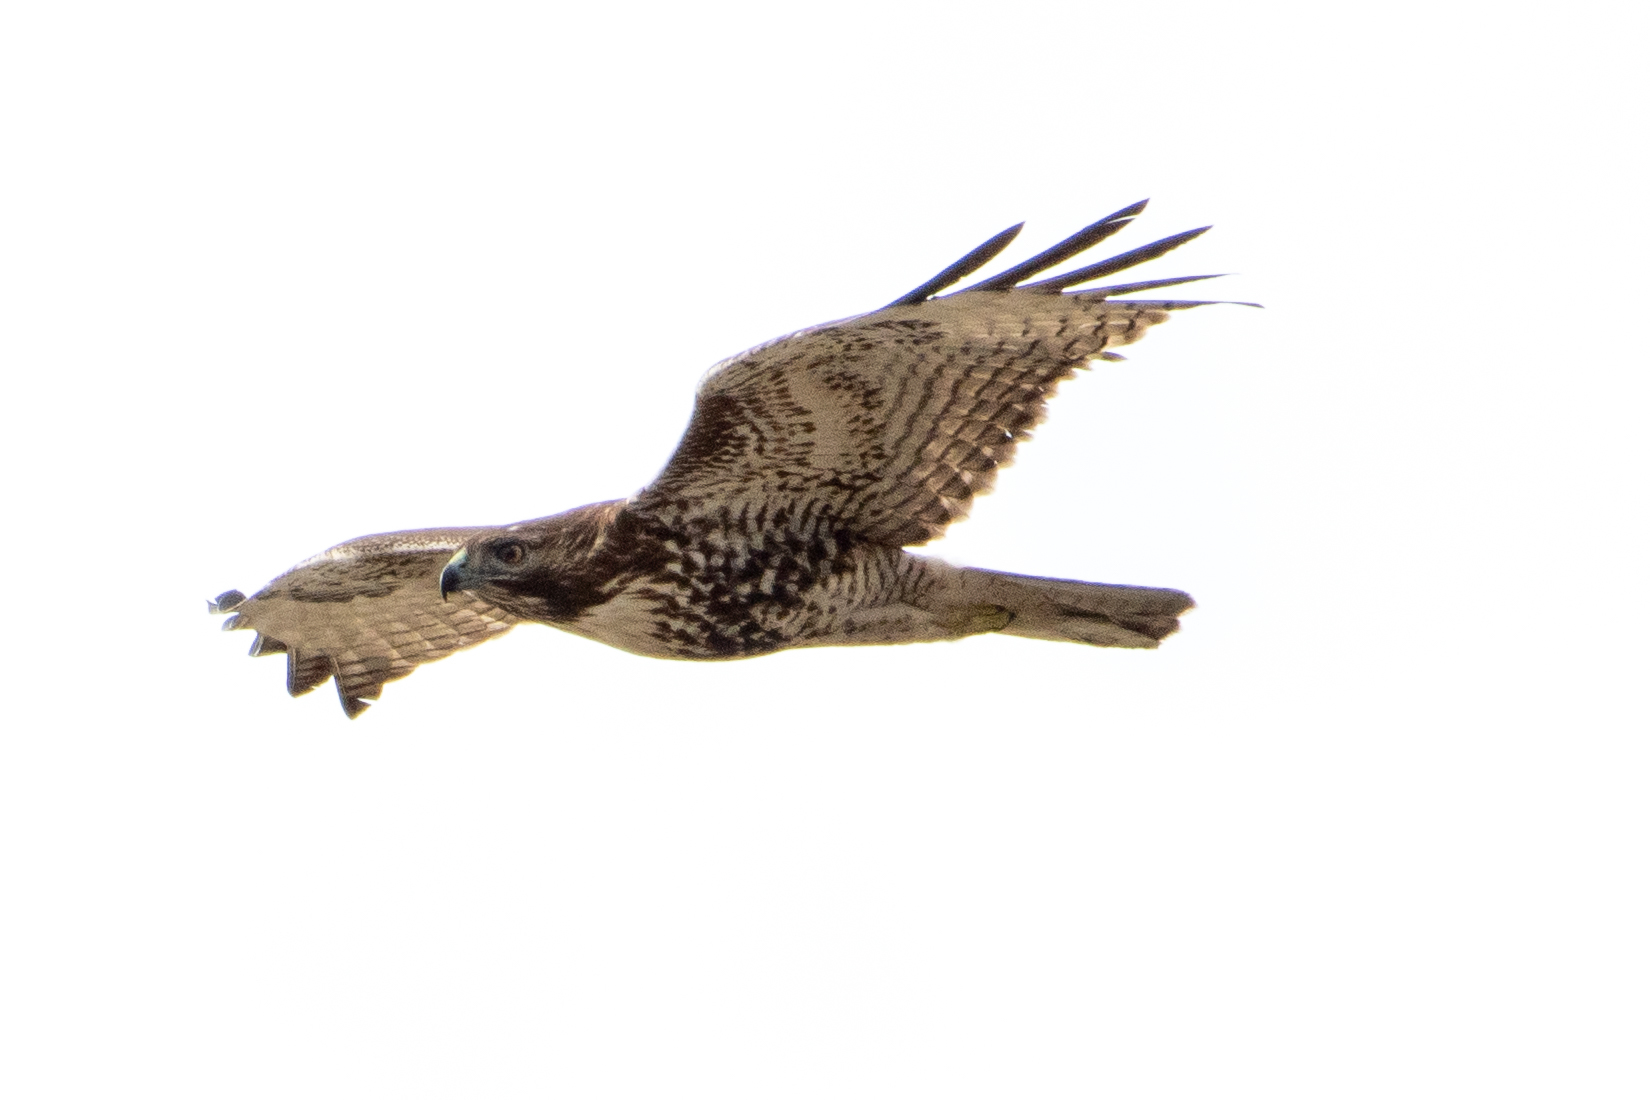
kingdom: Animalia
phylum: Chordata
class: Aves
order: Accipitriformes
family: Accipitridae
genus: Buteo
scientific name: Buteo jamaicensis
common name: Red-tailed hawk
